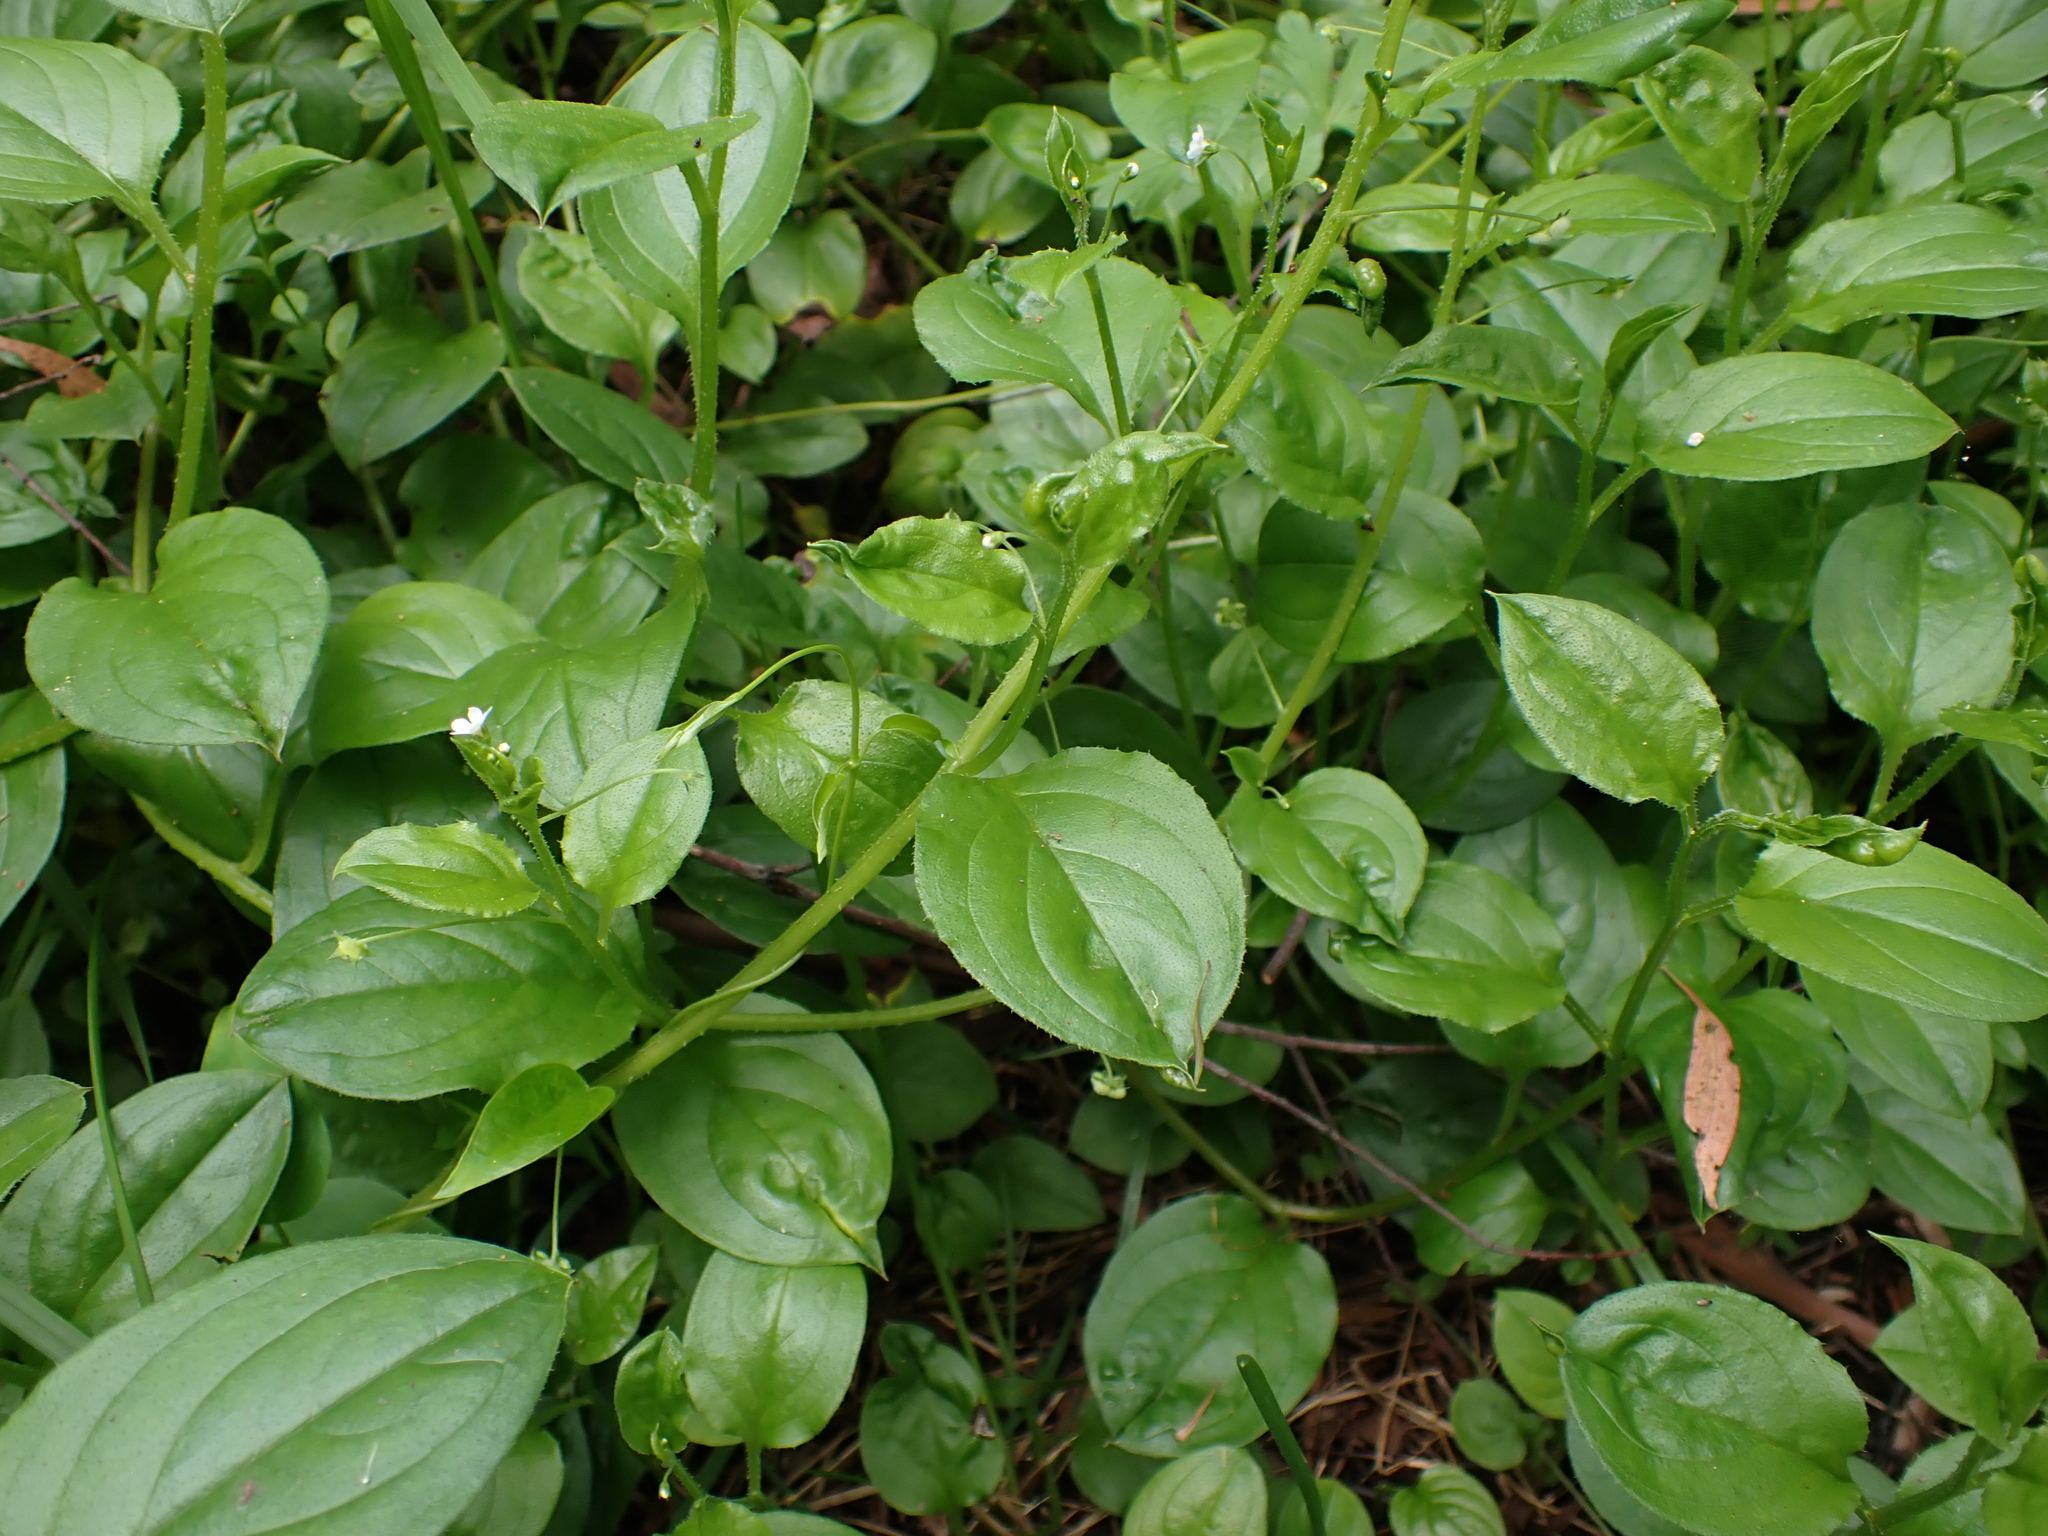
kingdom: Plantae
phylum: Tracheophyta
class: Magnoliopsida
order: Boraginales
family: Boraginaceae
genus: Hackelia
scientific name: Hackelia latifolia
